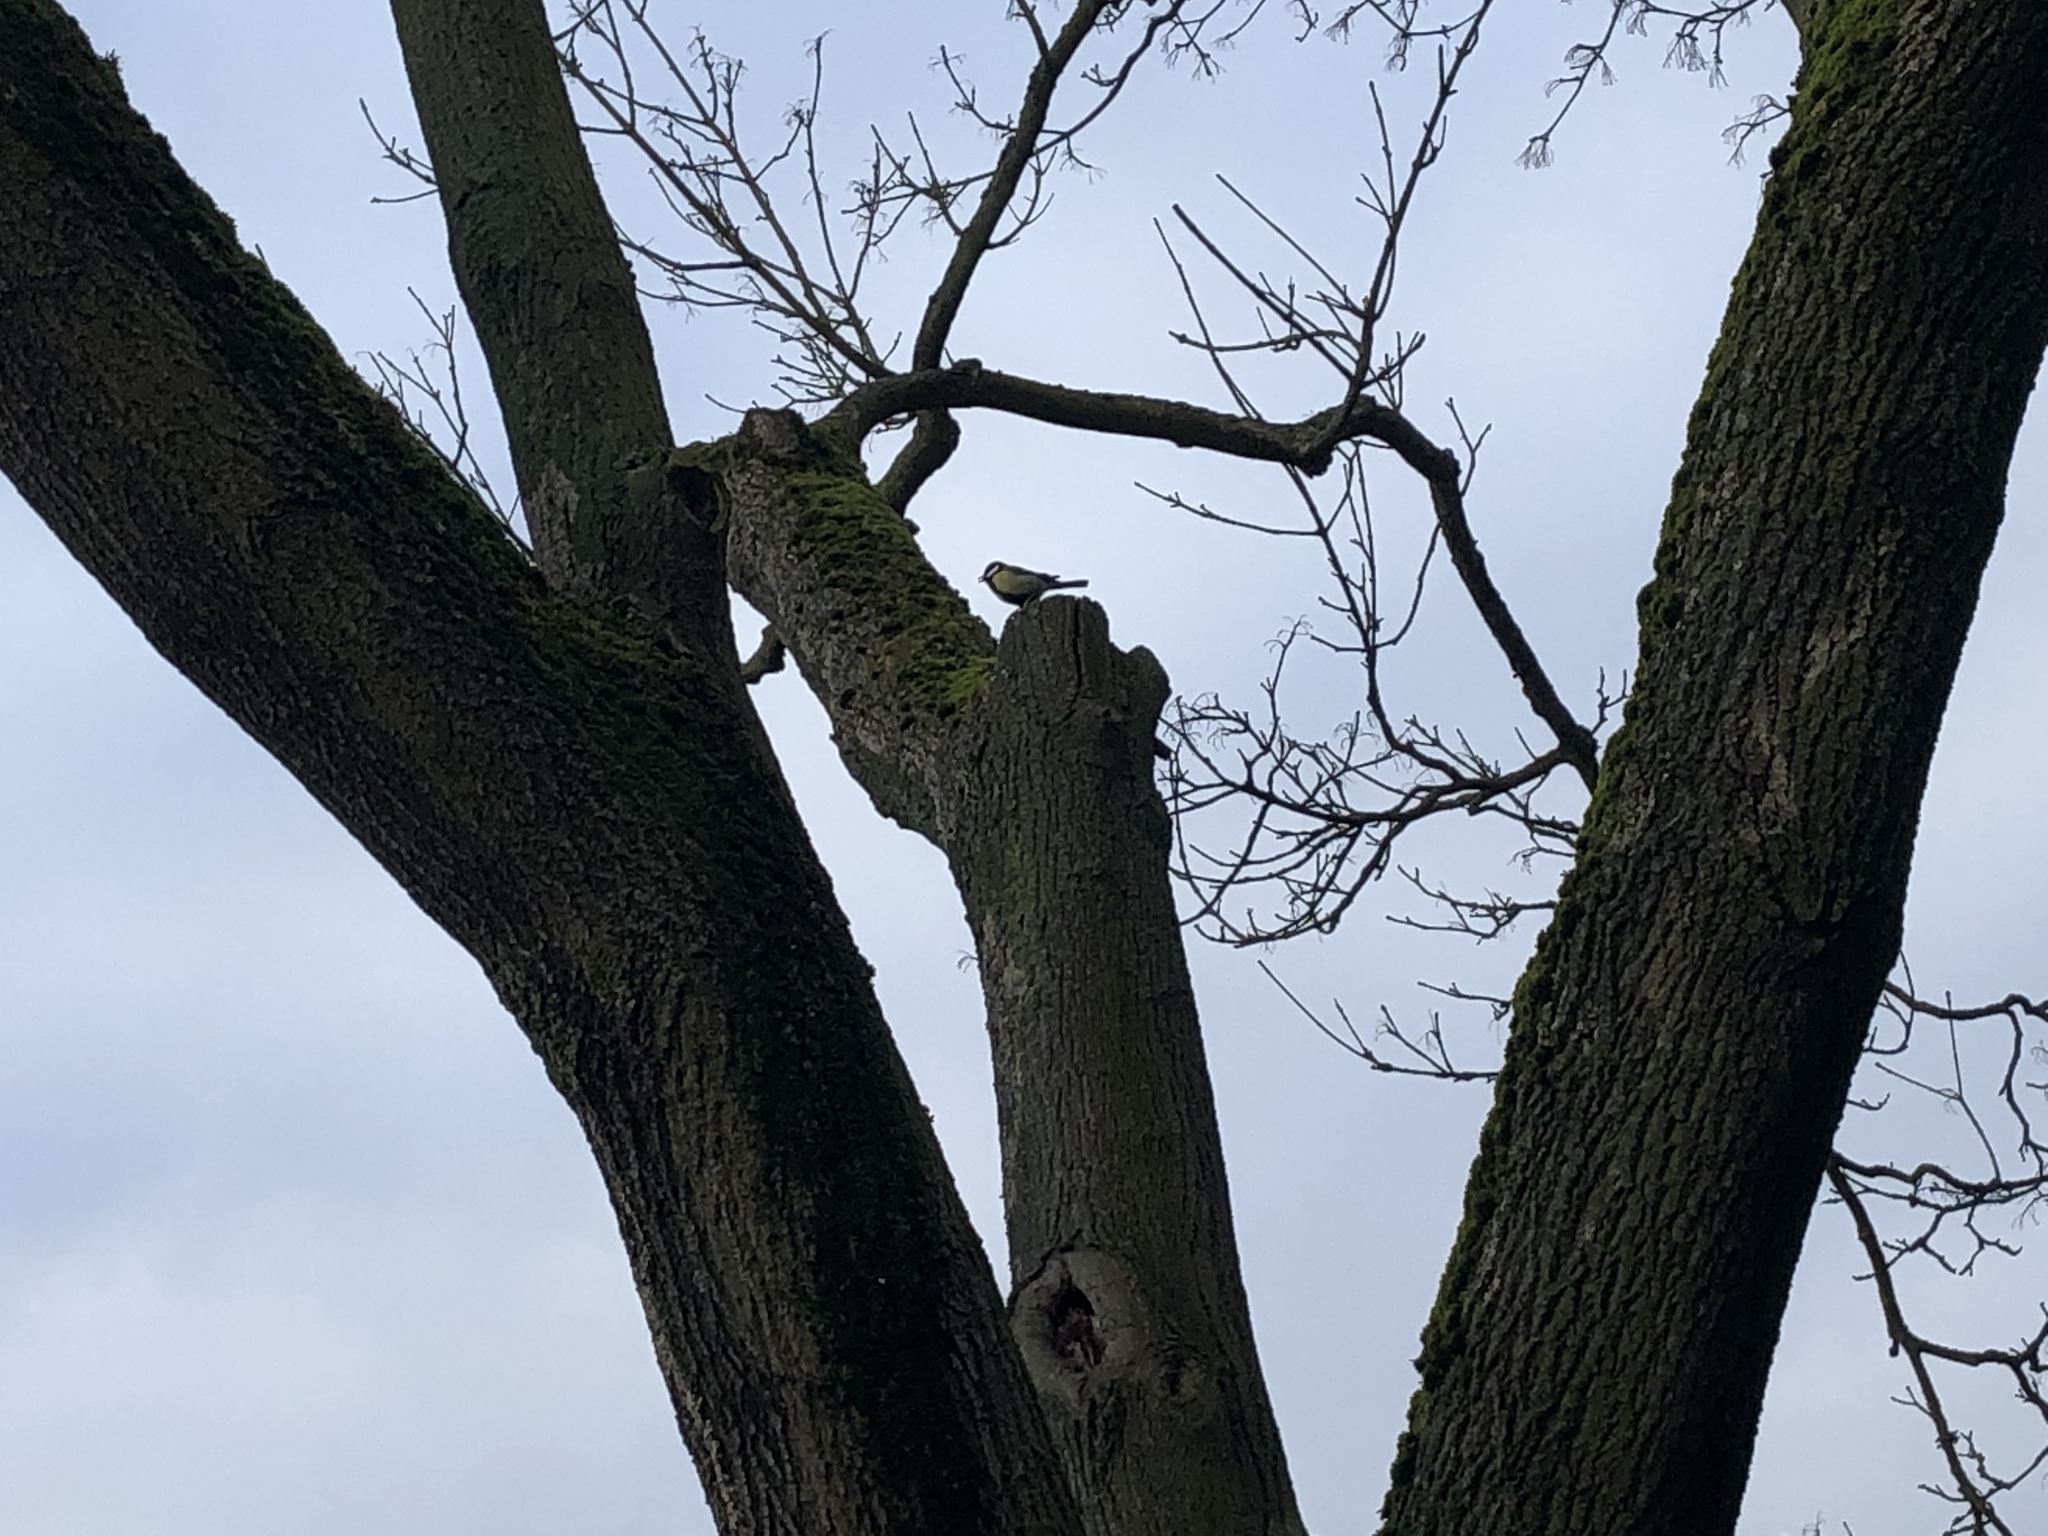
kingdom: Animalia
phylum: Chordata
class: Aves
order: Passeriformes
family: Paridae
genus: Parus
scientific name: Parus major
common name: Great tit
